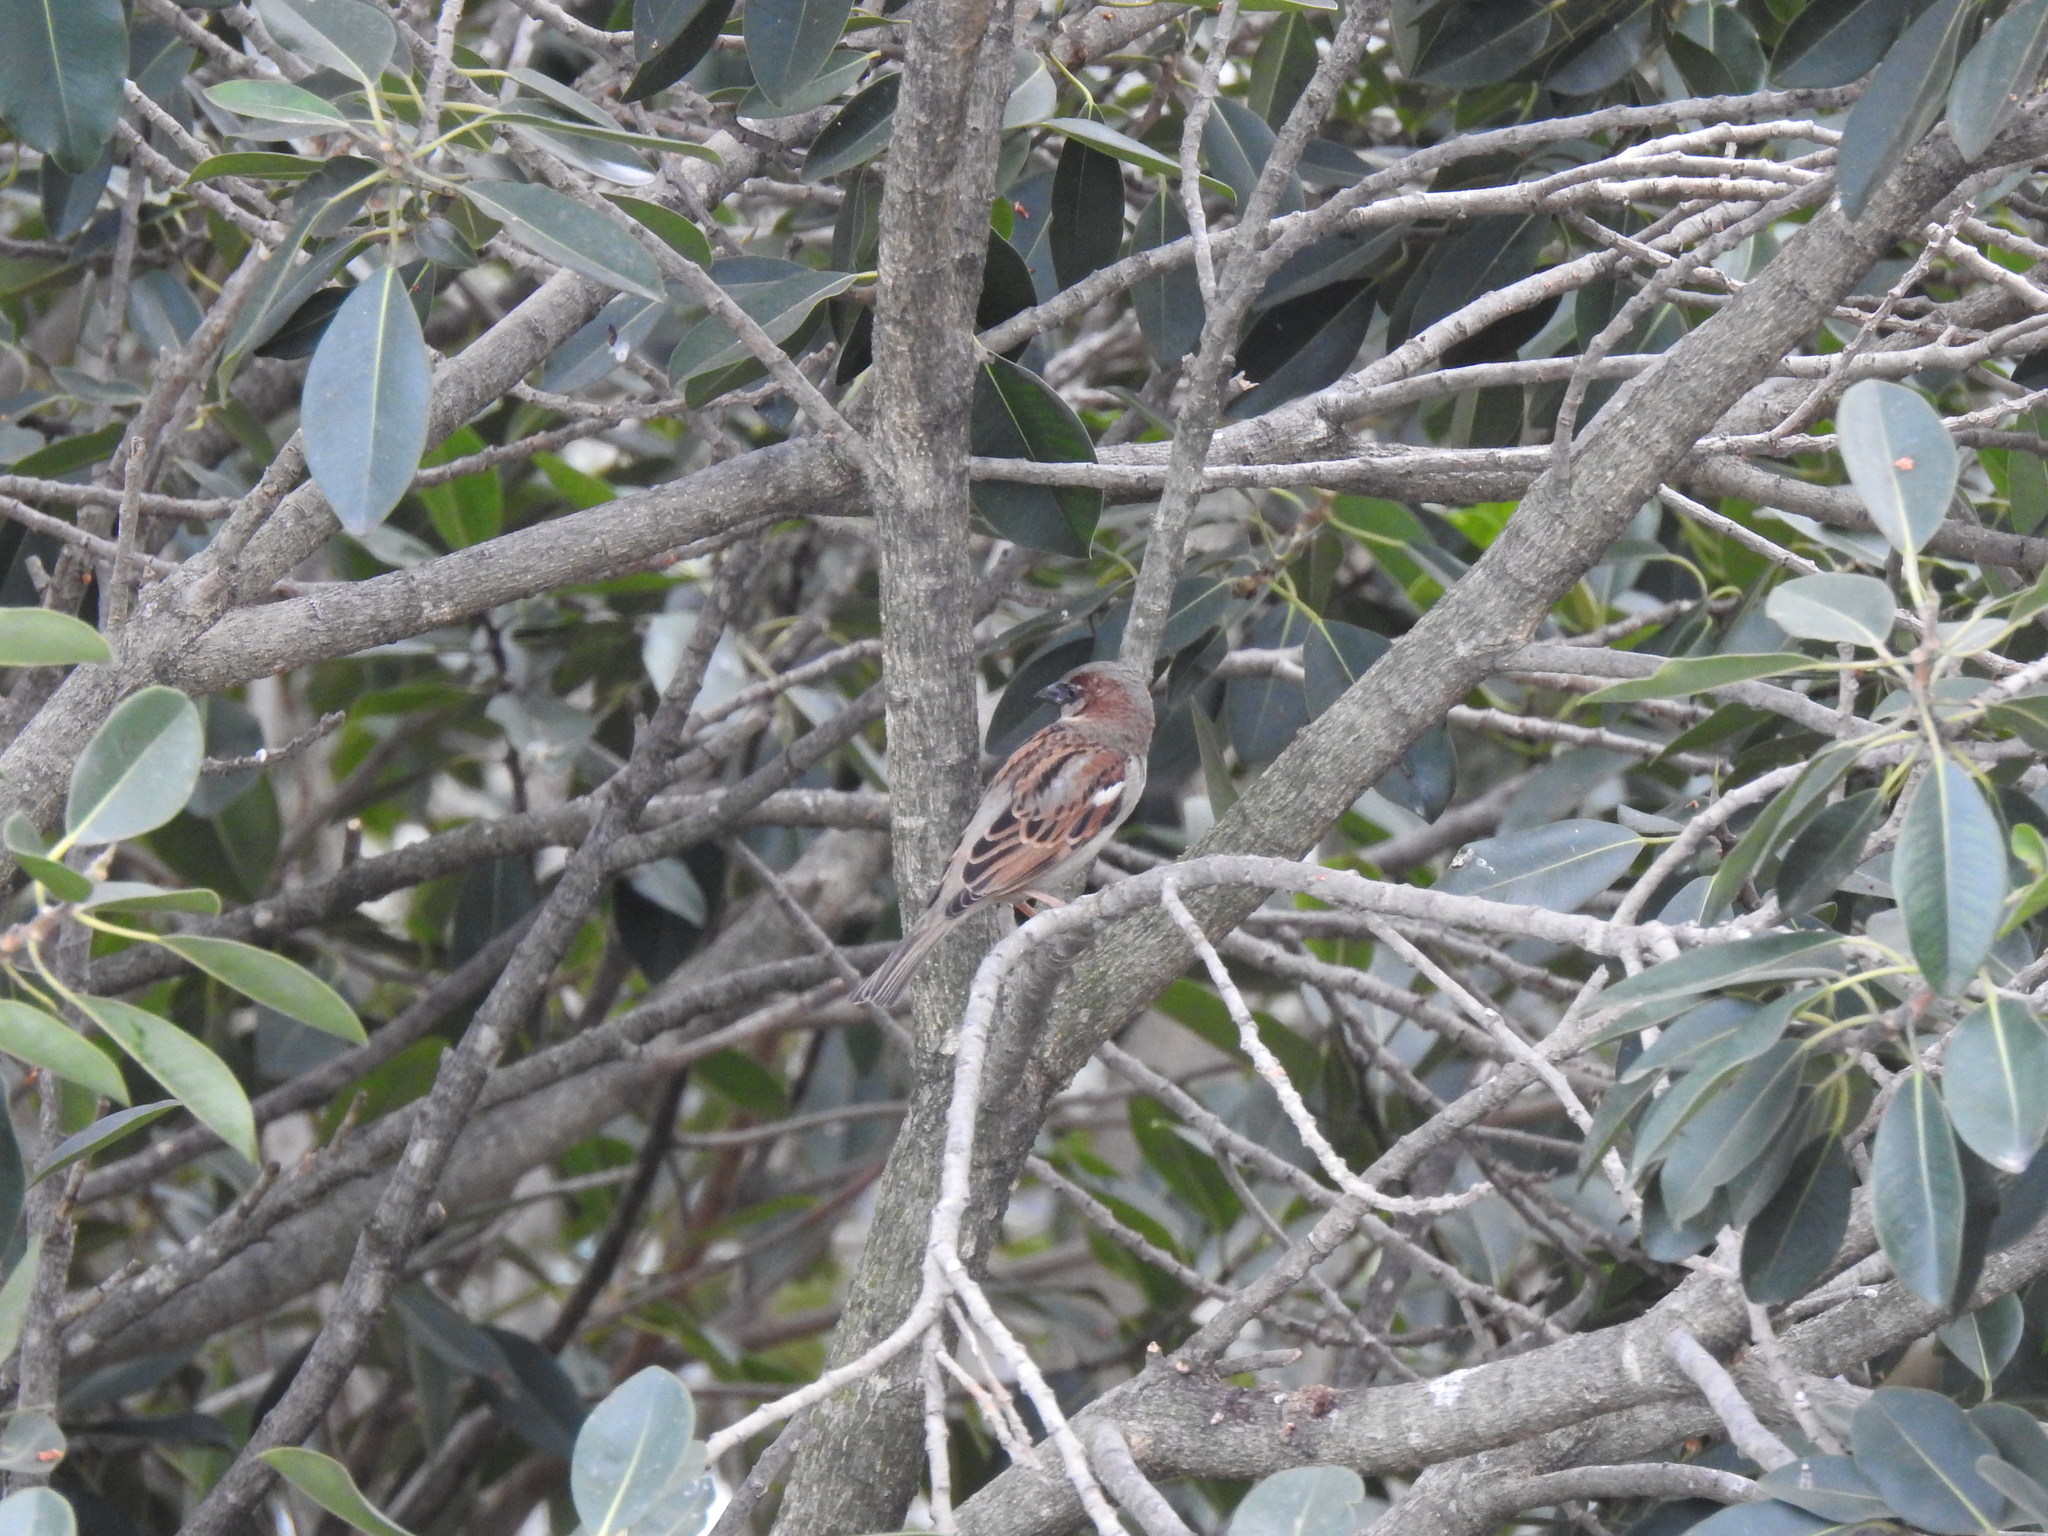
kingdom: Animalia
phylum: Chordata
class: Aves
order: Passeriformes
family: Passeridae
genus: Passer
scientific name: Passer domesticus
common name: House sparrow
